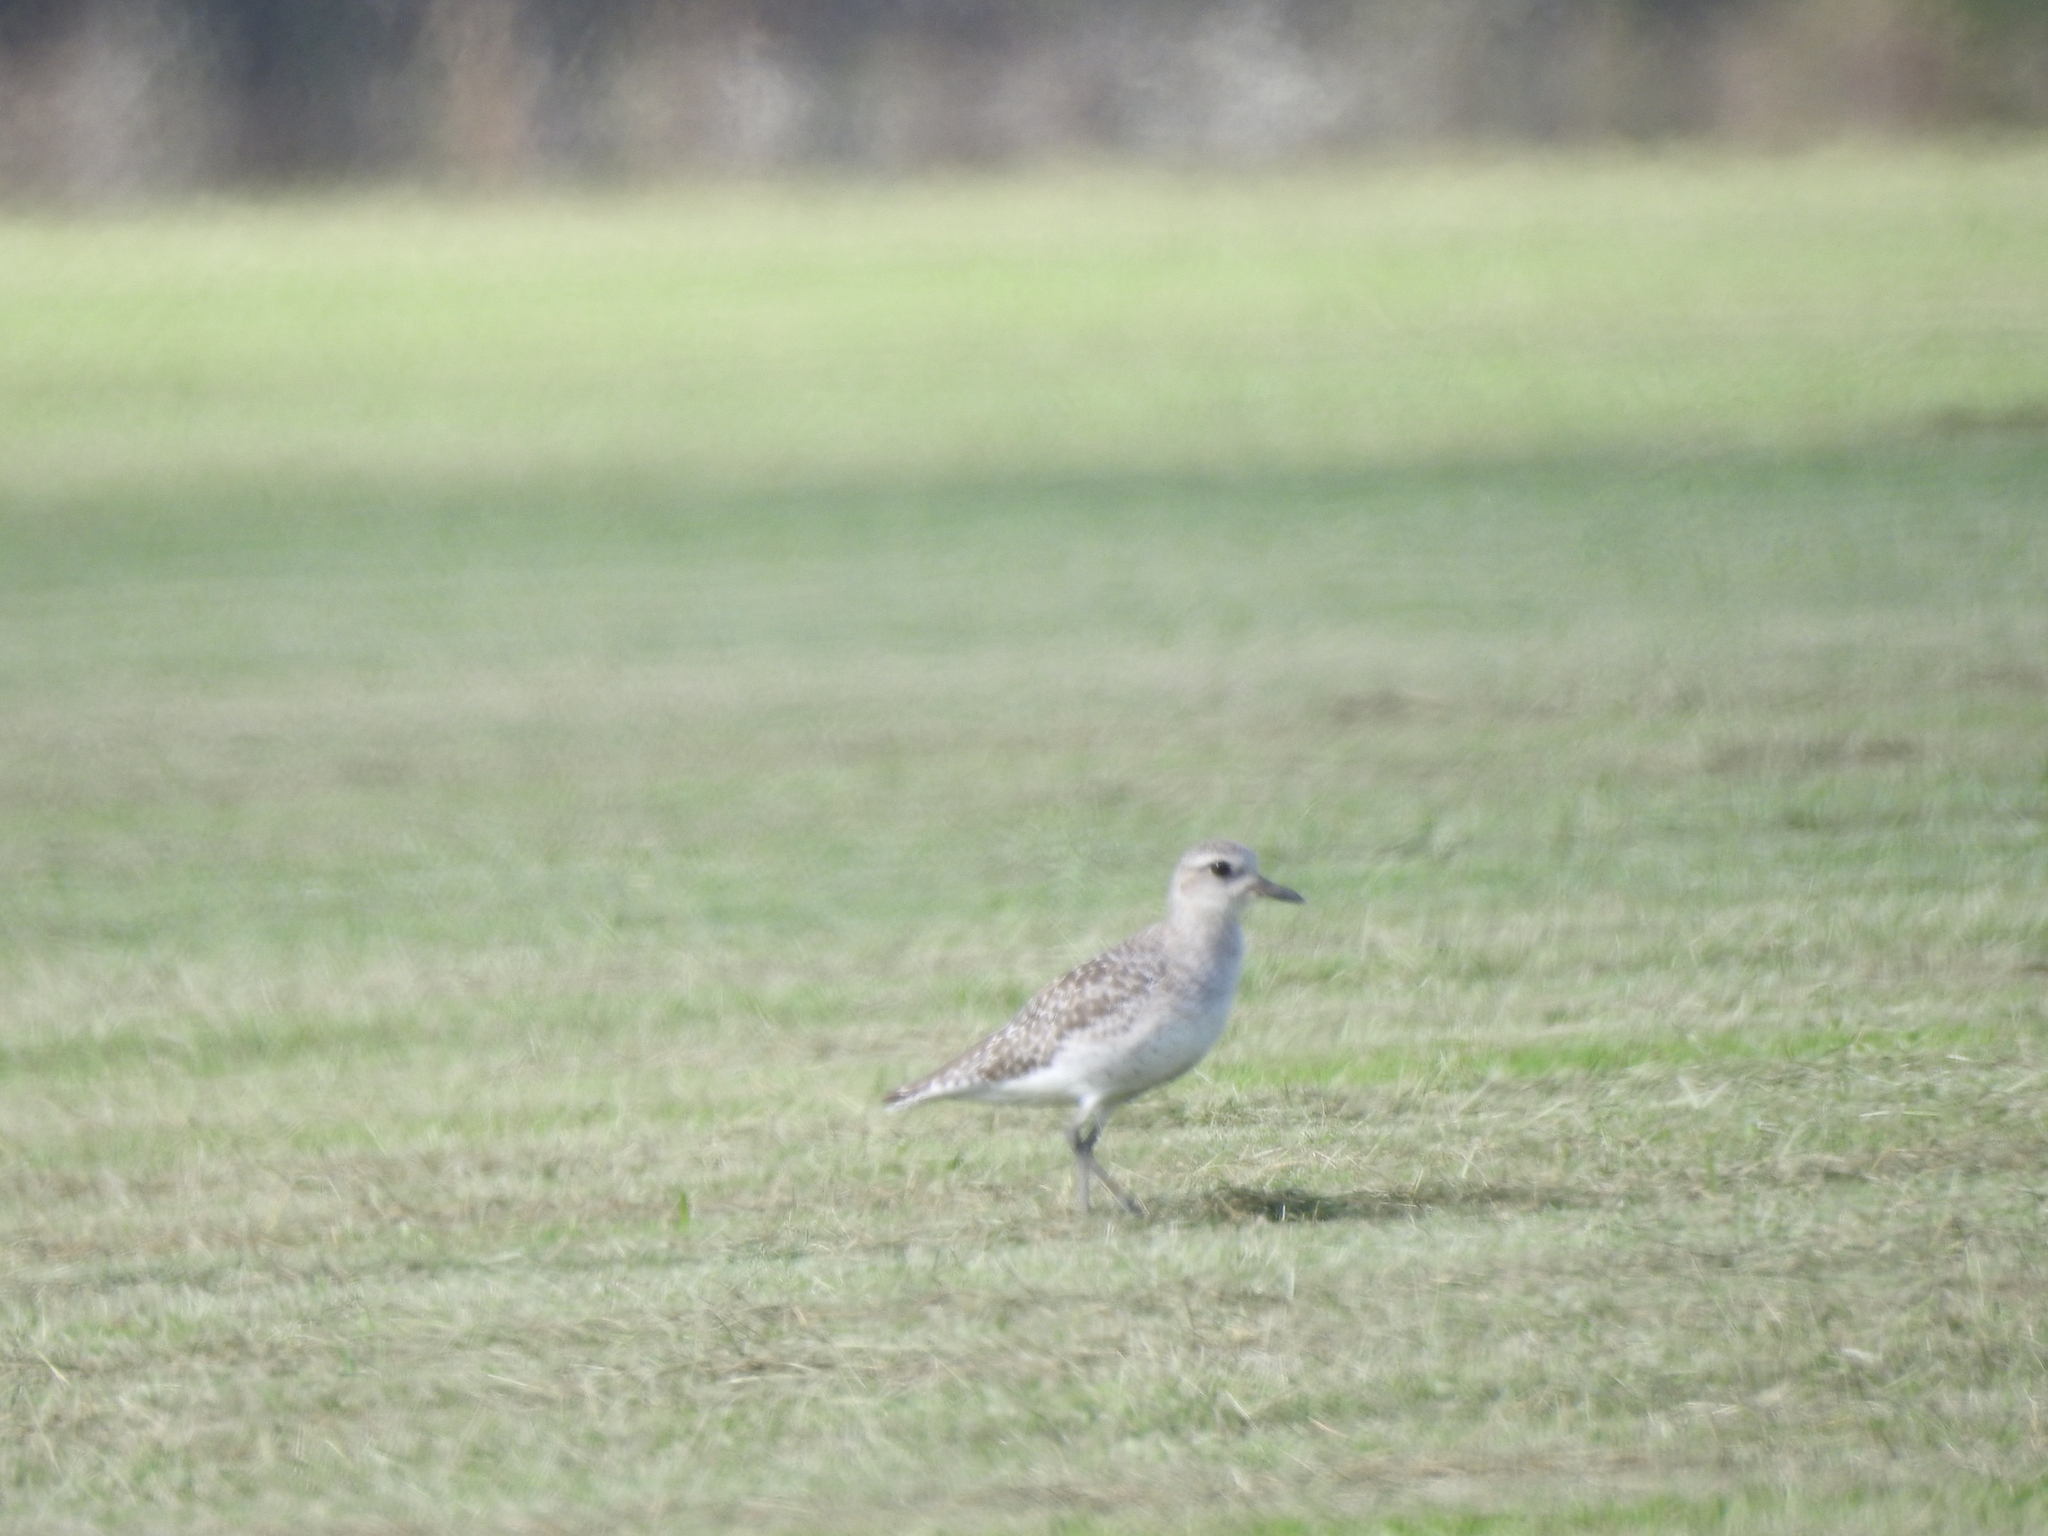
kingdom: Animalia
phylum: Chordata
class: Aves
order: Charadriiformes
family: Charadriidae
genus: Pluvialis
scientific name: Pluvialis squatarola
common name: Grey plover
